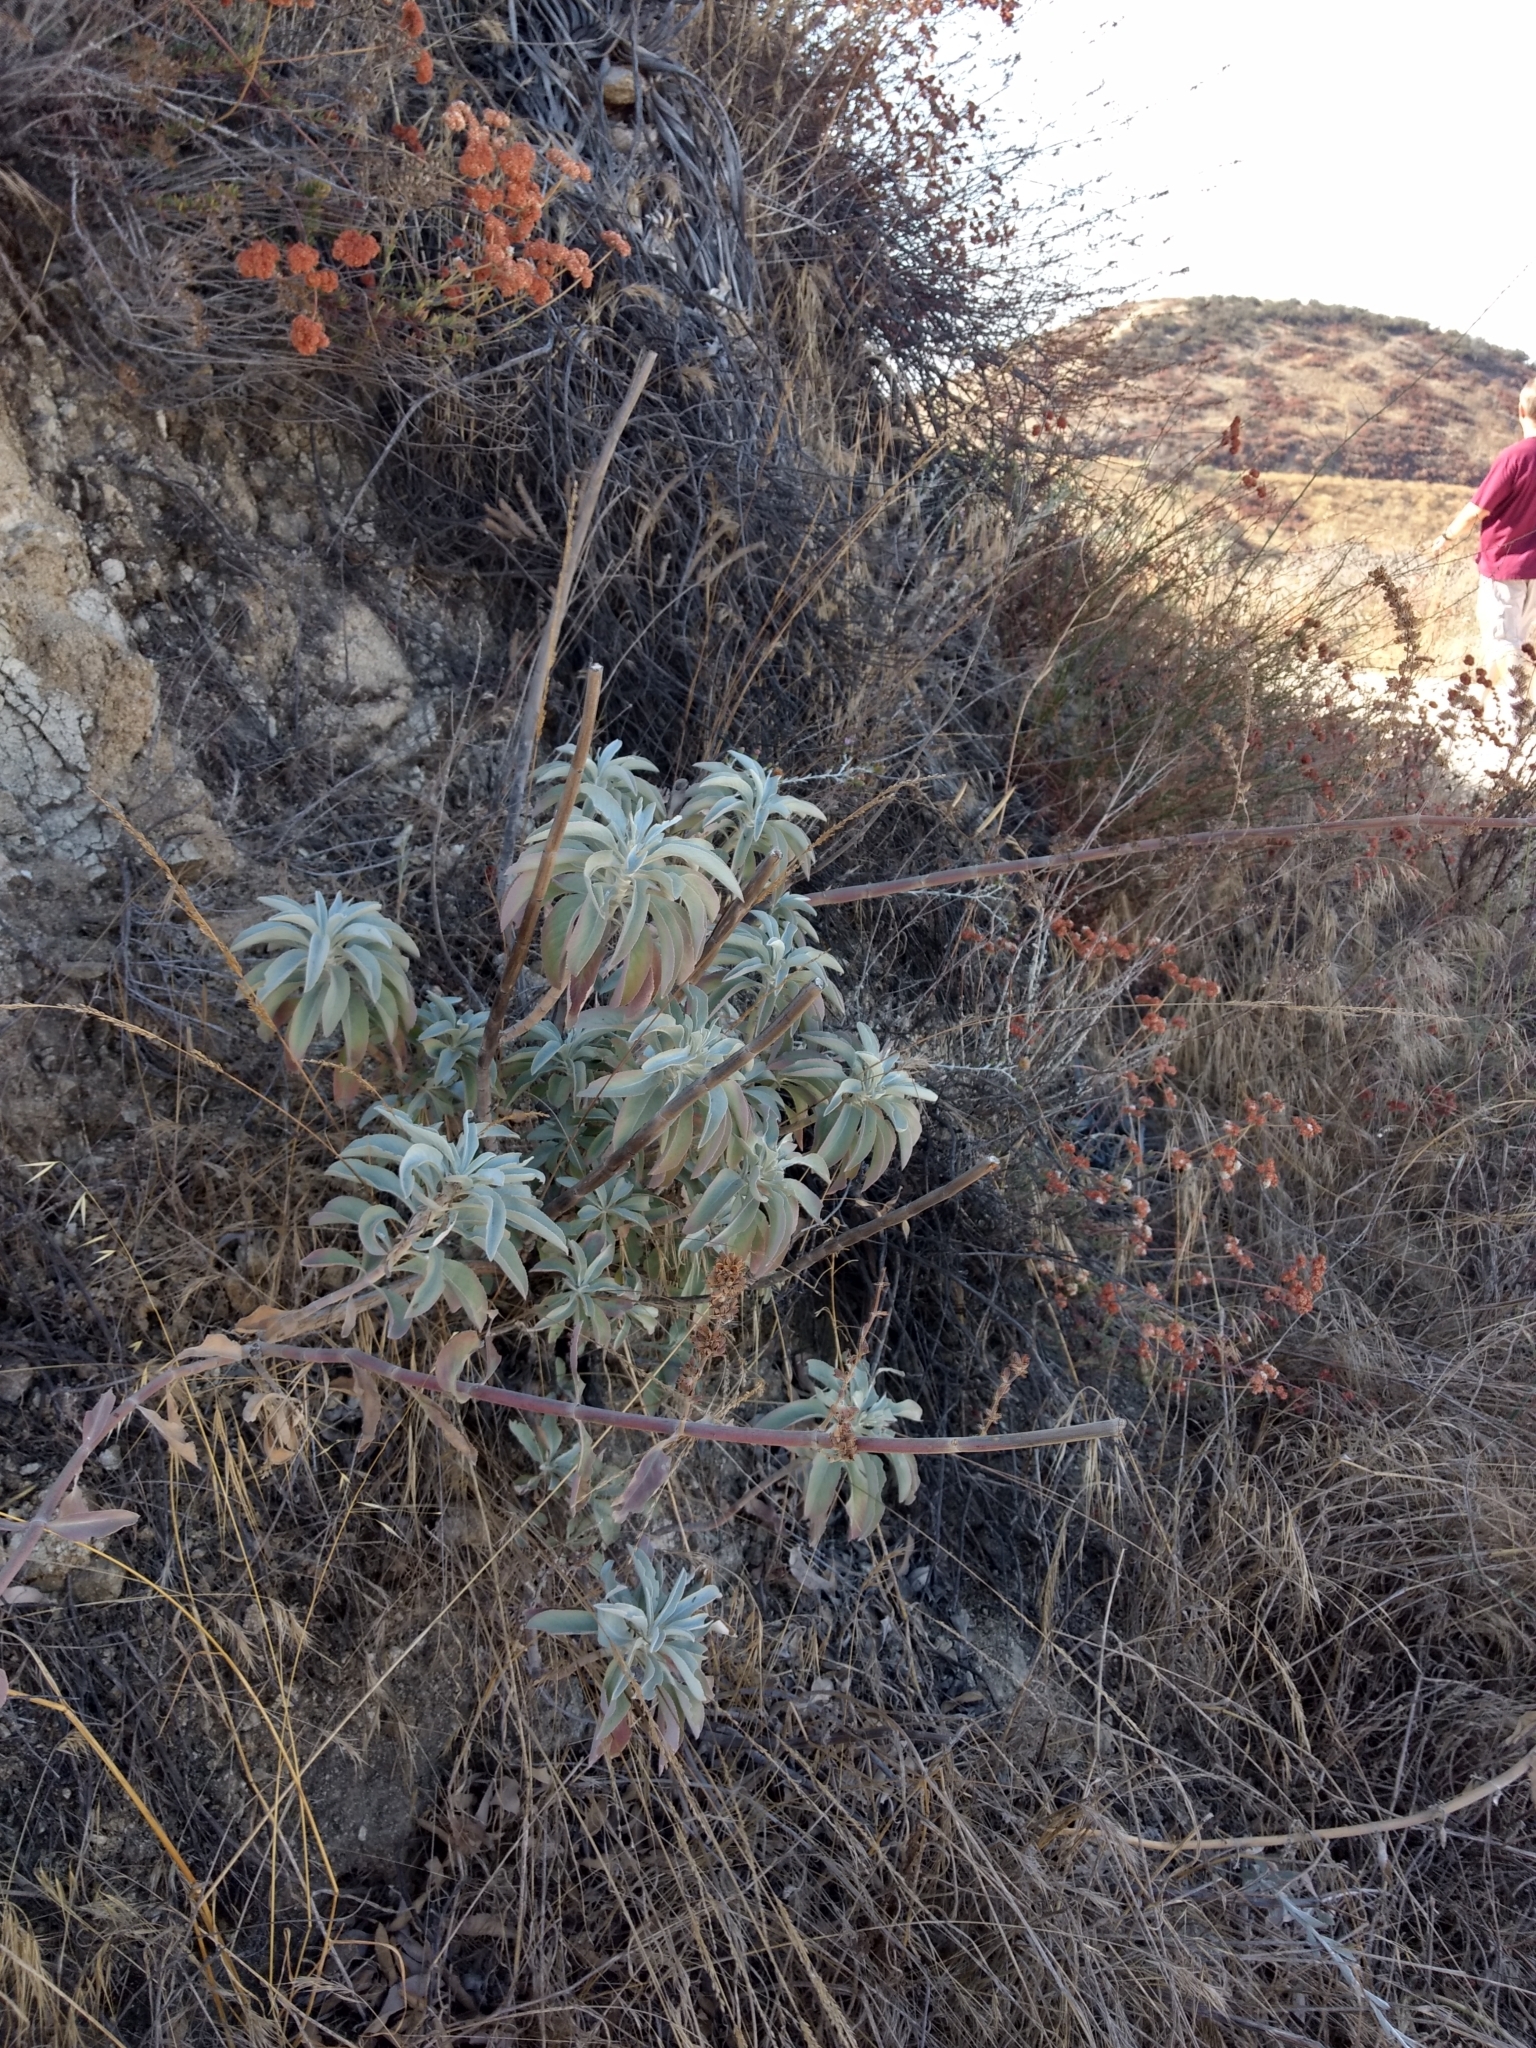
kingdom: Plantae
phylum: Tracheophyta
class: Magnoliopsida
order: Lamiales
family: Lamiaceae
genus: Salvia
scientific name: Salvia apiana
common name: White sage
